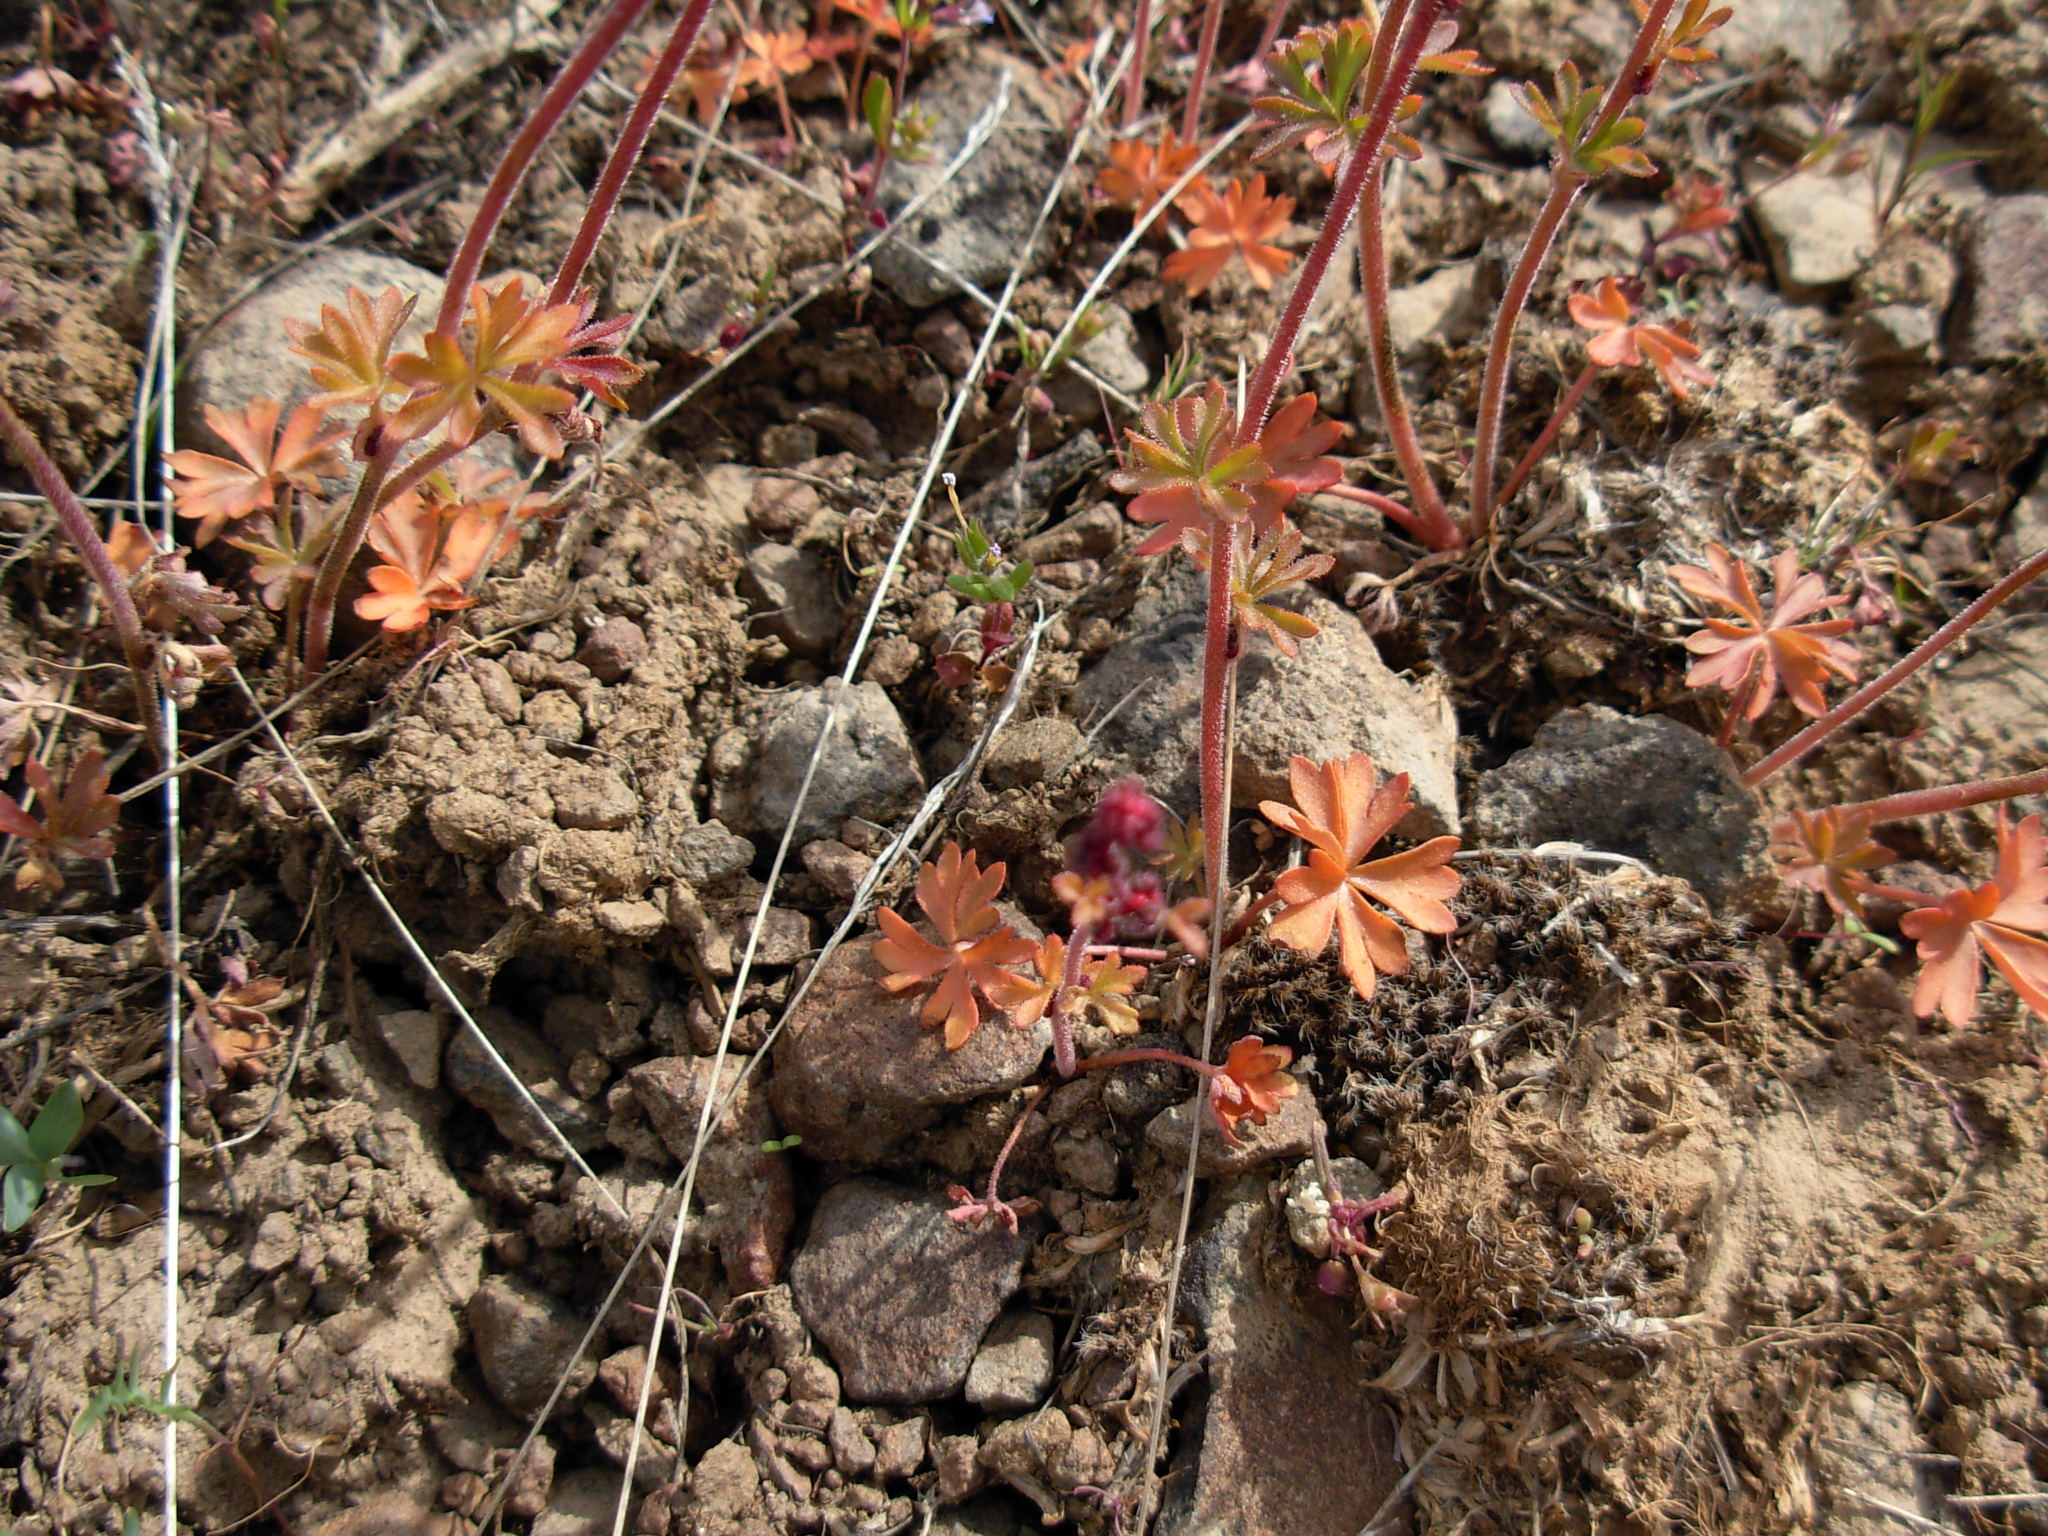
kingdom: Plantae
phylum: Tracheophyta
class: Magnoliopsida
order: Saxifragales
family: Saxifragaceae
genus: Lithophragma
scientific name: Lithophragma glabrum
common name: Bulbous prairie-star
